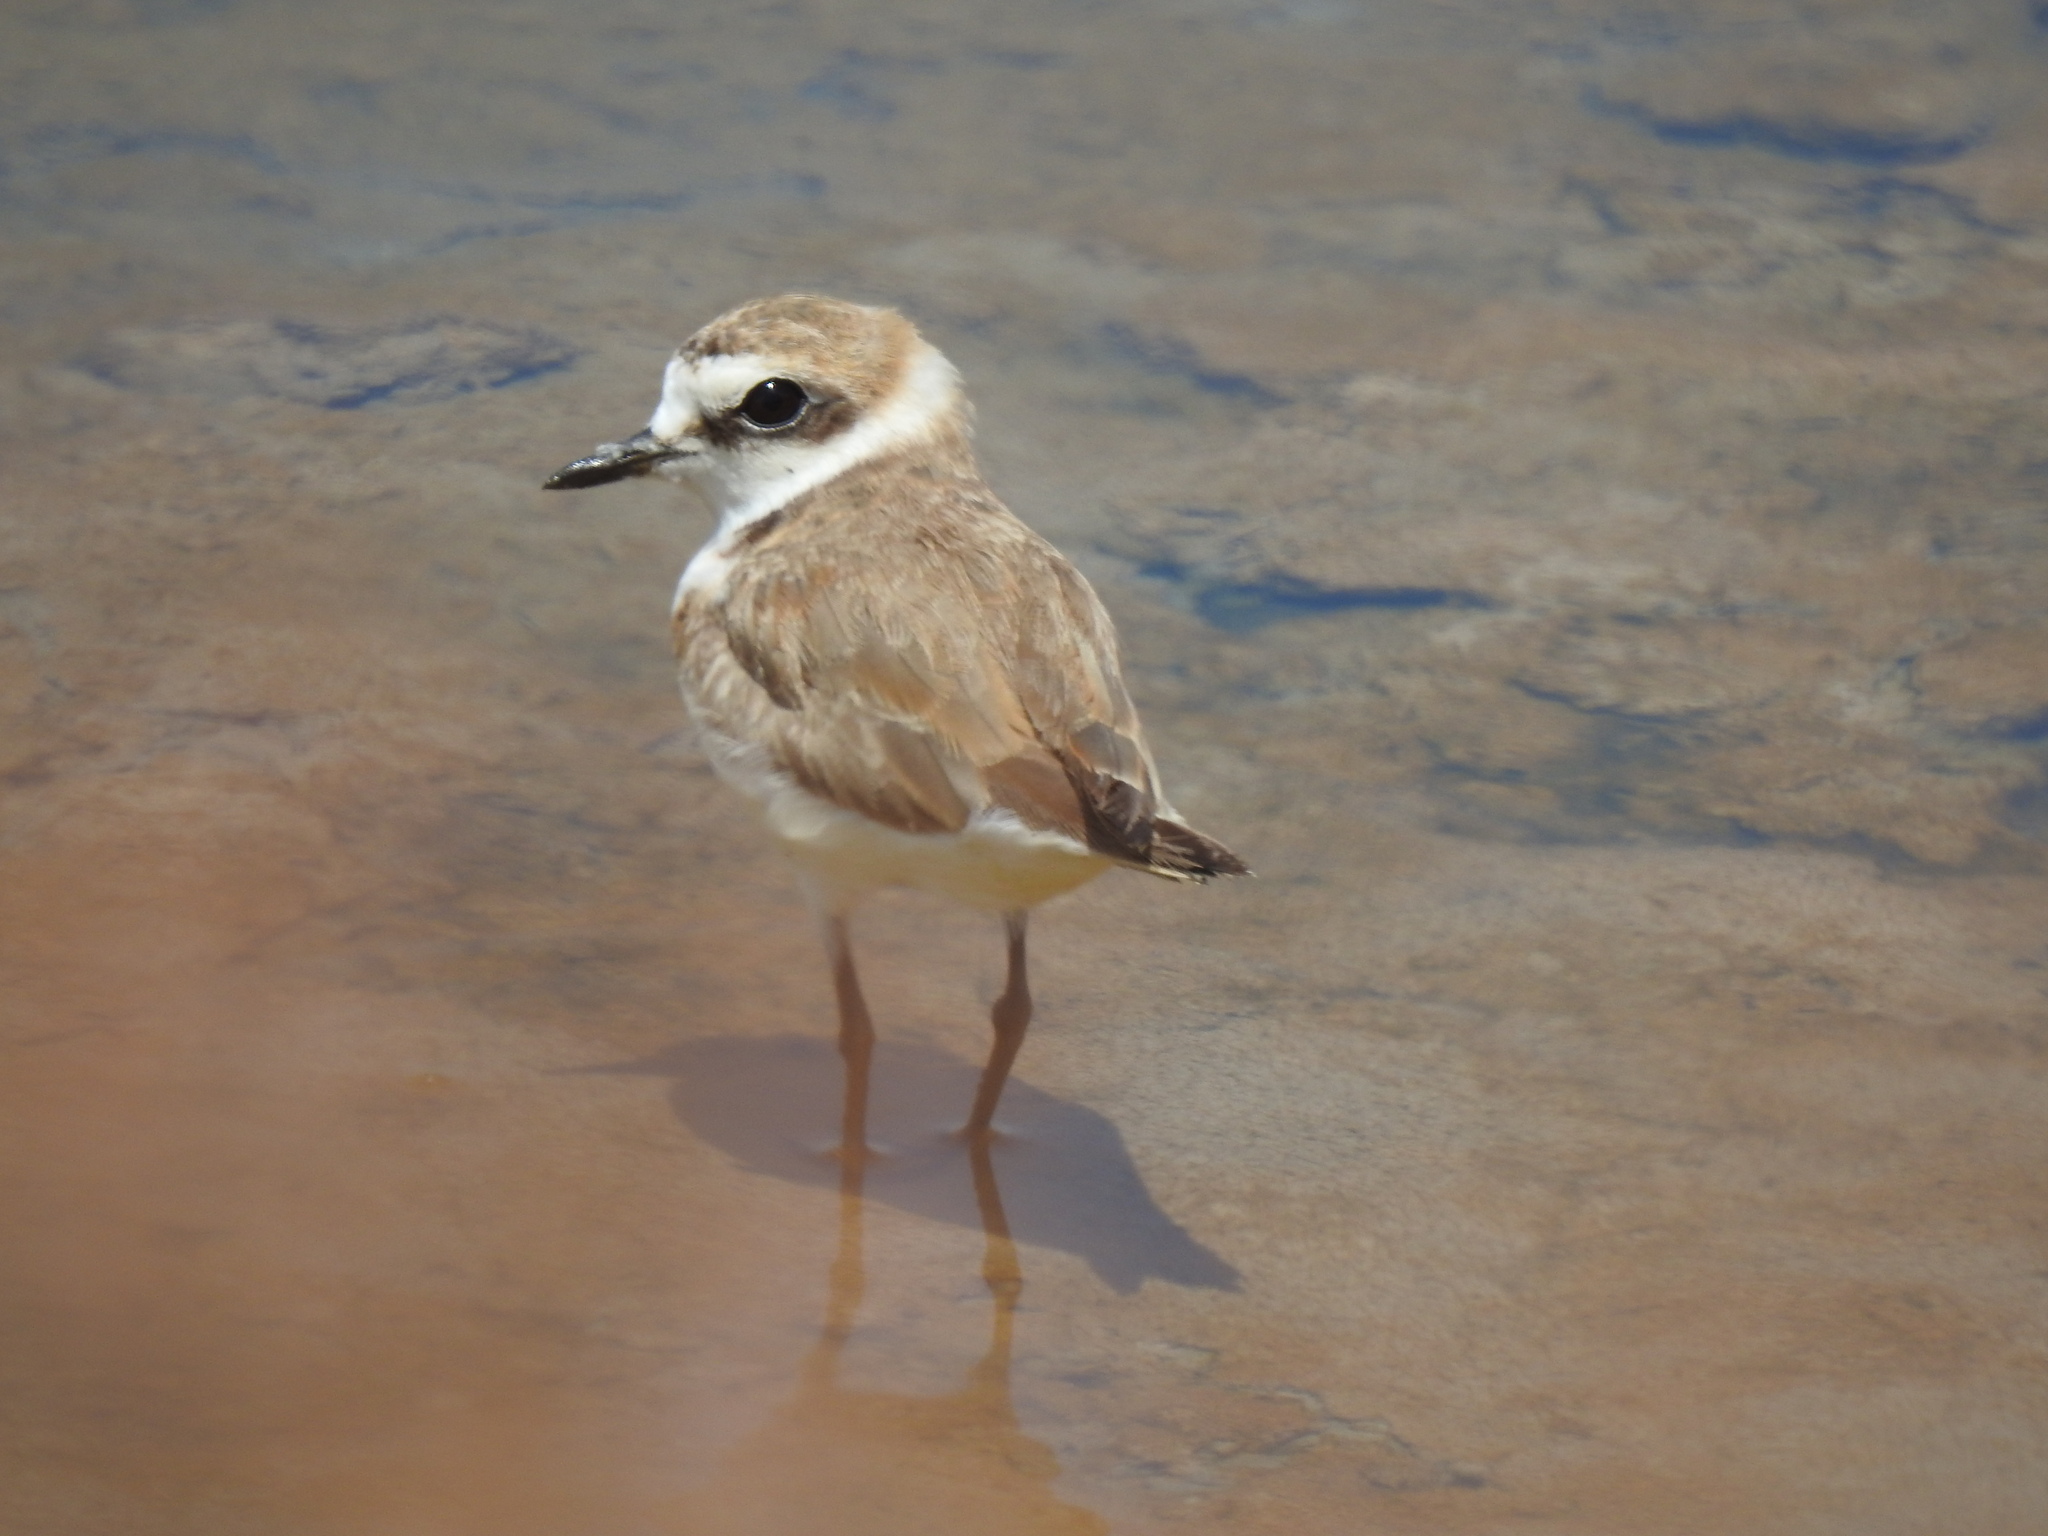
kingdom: Animalia
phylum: Chordata
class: Aves
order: Charadriiformes
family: Charadriidae
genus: Charadrius
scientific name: Charadrius alexandrinus
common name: Kentish plover
